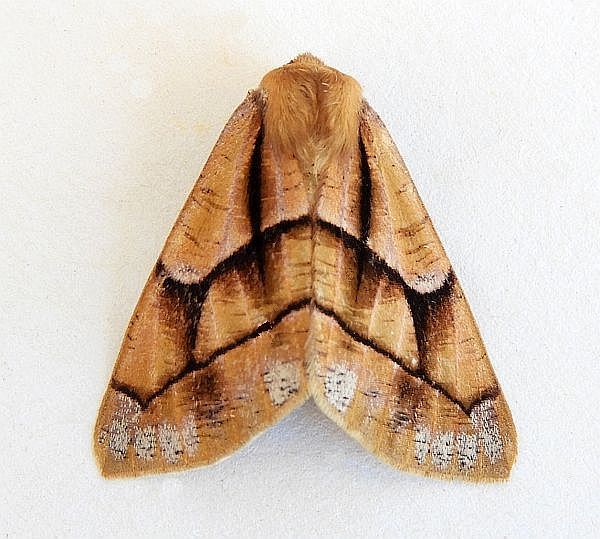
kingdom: Animalia
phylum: Arthropoda
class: Insecta
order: Lepidoptera
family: Geometridae
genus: Snowia
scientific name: Snowia montanaria
